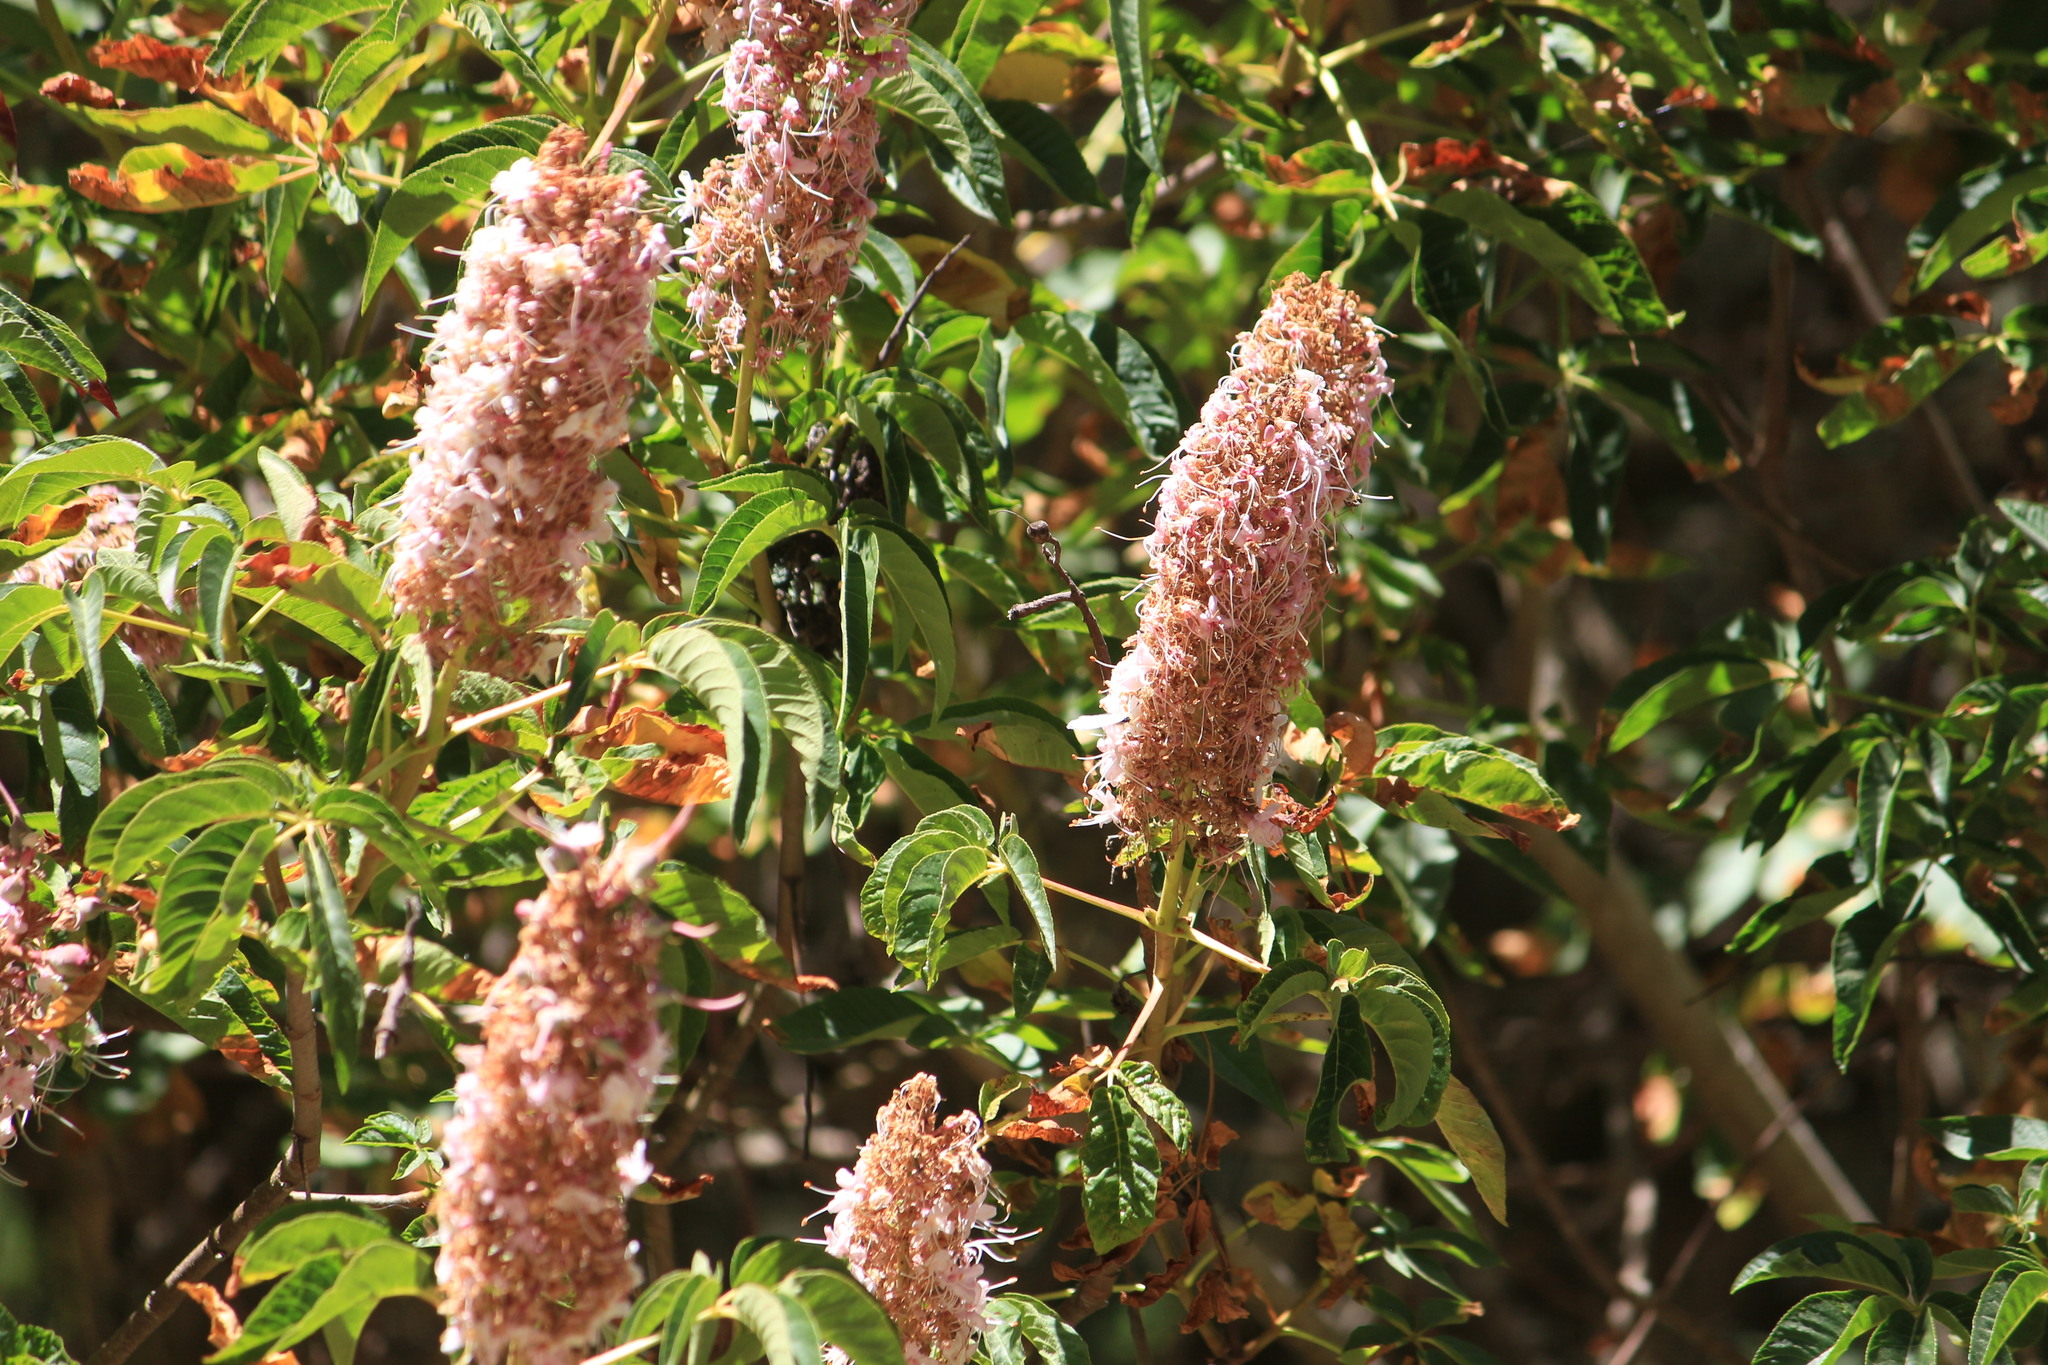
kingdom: Plantae
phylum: Tracheophyta
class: Magnoliopsida
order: Sapindales
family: Sapindaceae
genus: Aesculus
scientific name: Aesculus californica
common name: California buckeye
